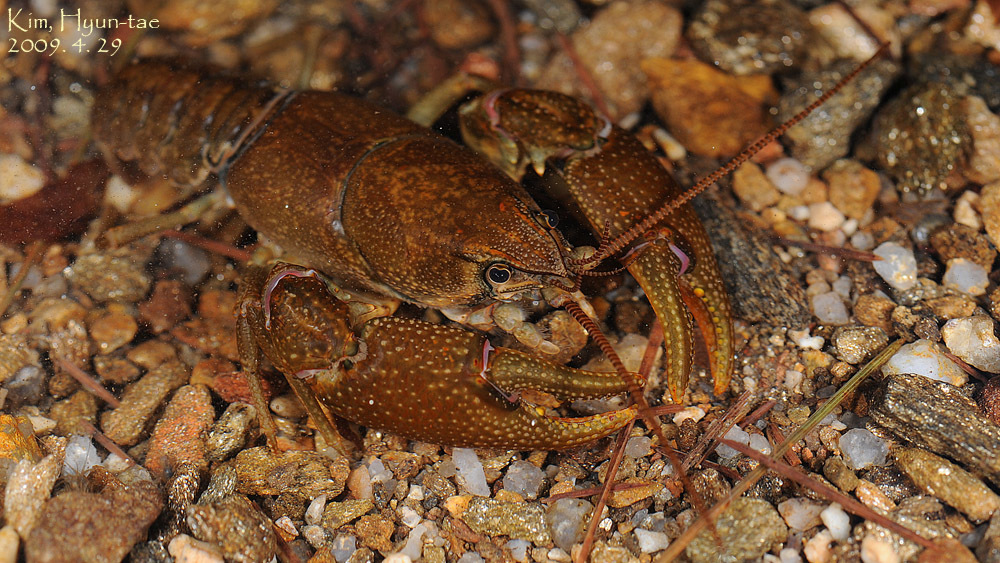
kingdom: Animalia
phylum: Arthropoda
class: Malacostraca
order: Decapoda
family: Cambaroididae
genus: Cambaroides
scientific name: Cambaroides similis
